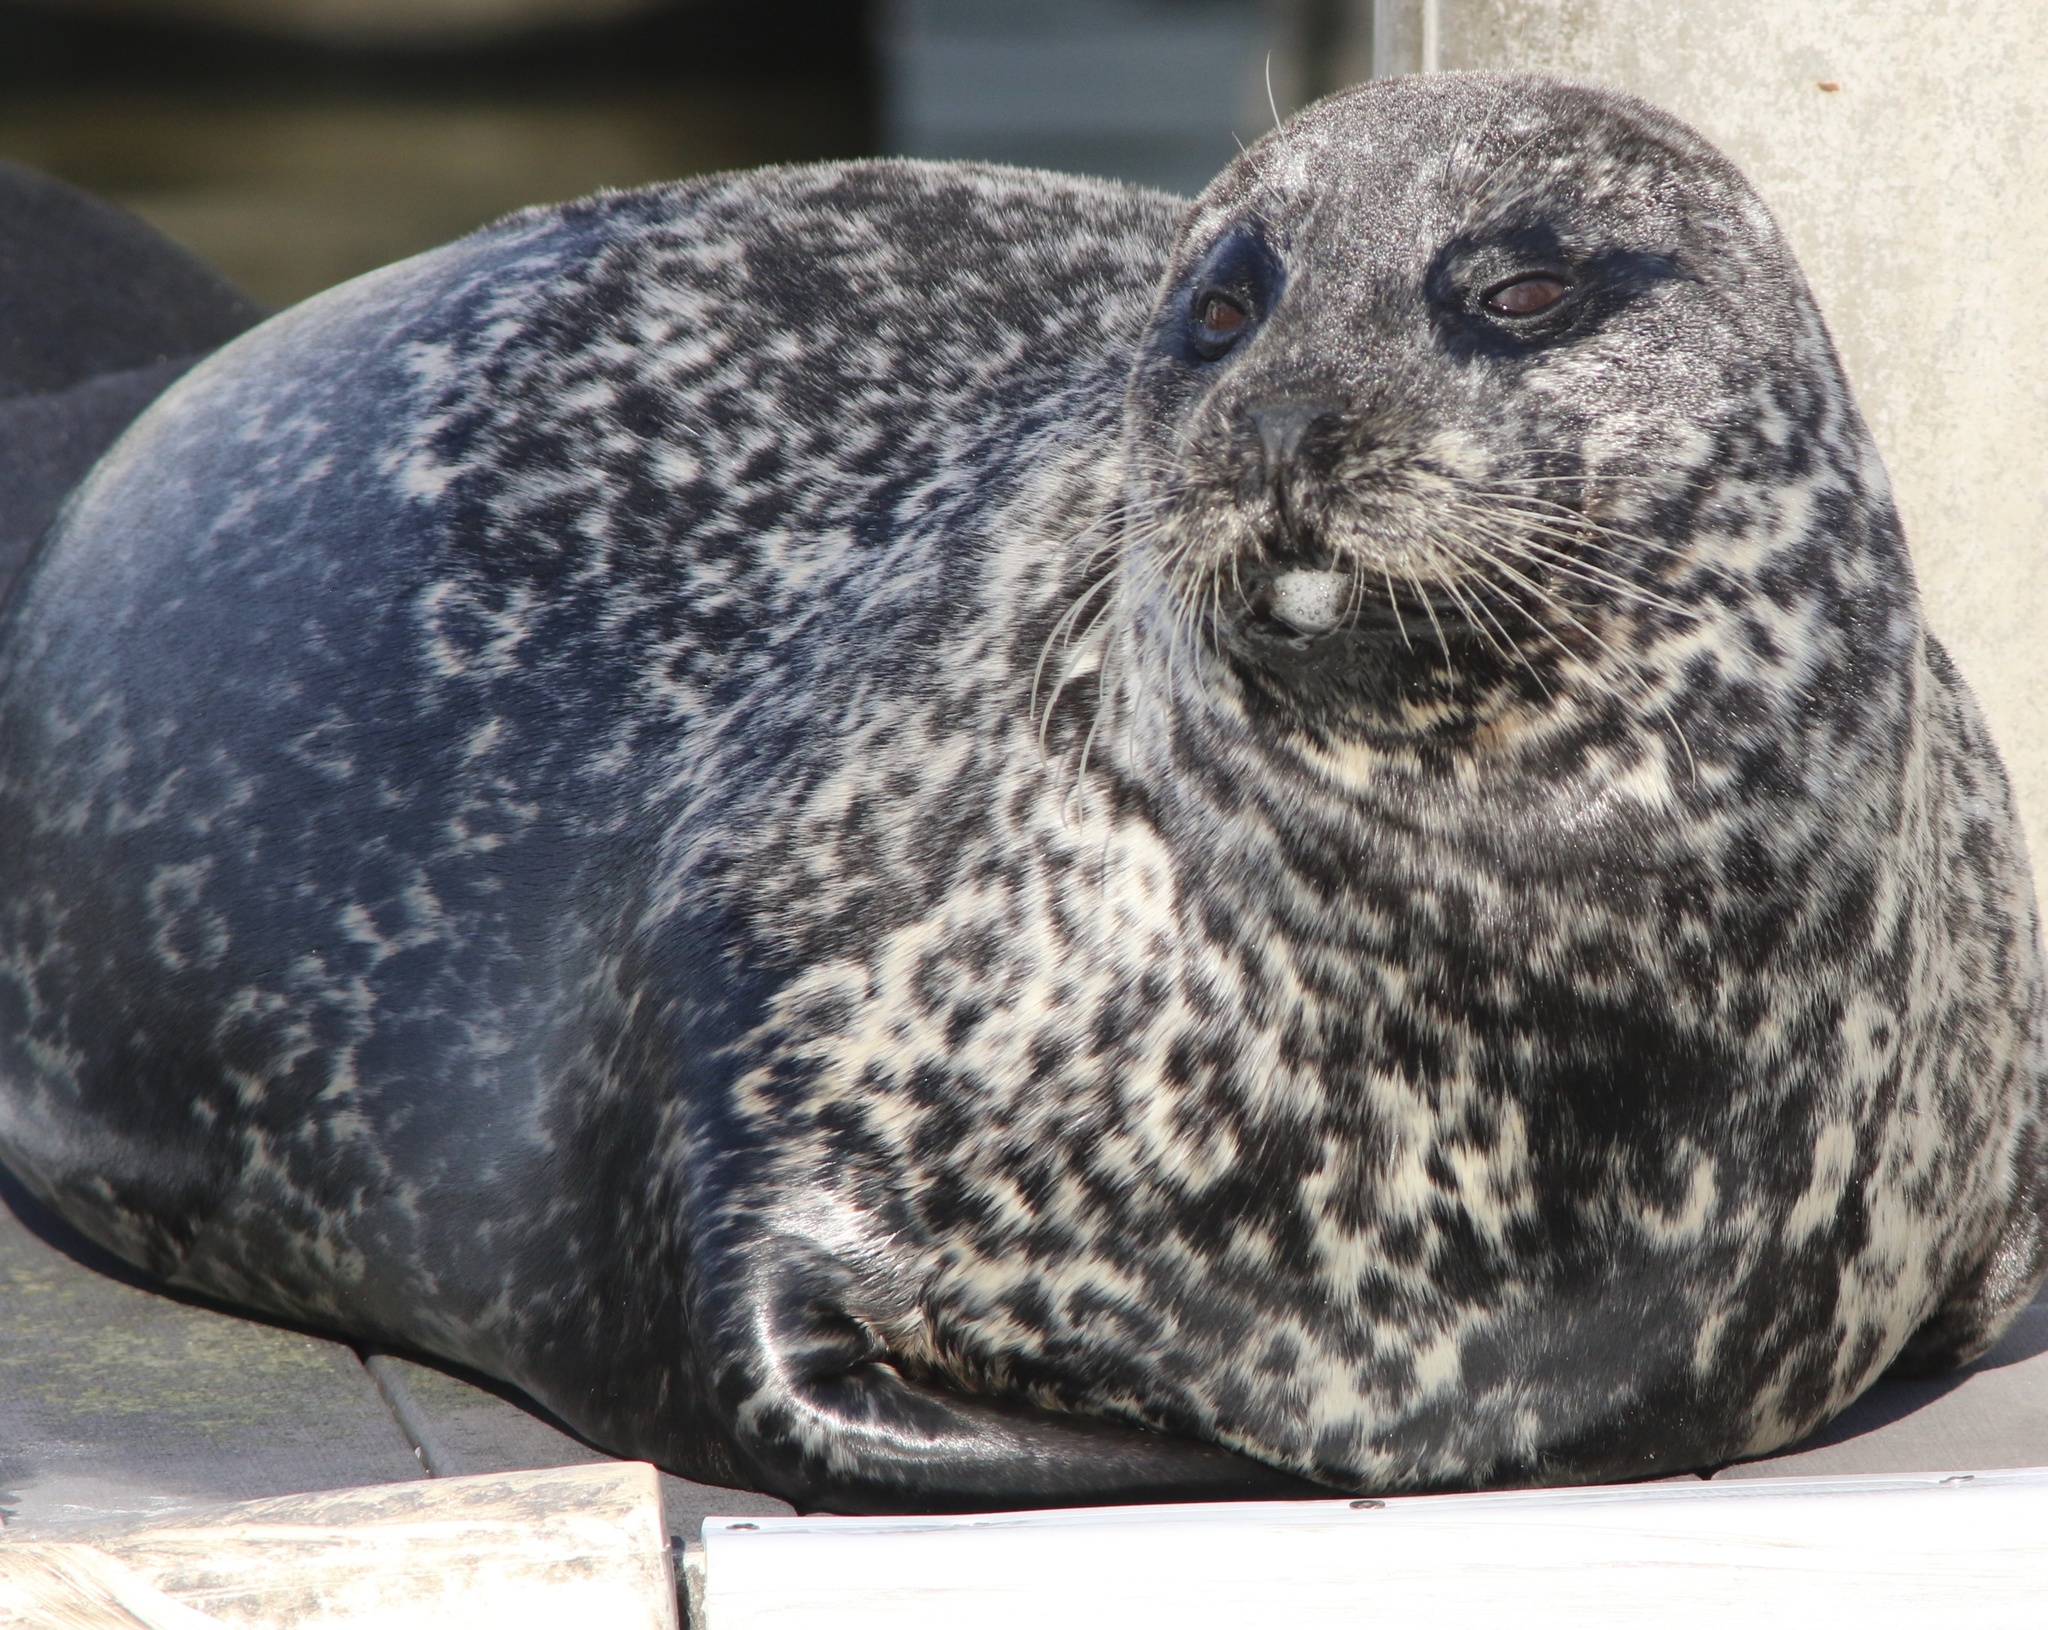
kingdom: Animalia
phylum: Chordata
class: Mammalia
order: Carnivora
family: Phocidae
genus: Phoca
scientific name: Phoca vitulina
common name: Harbor seal
